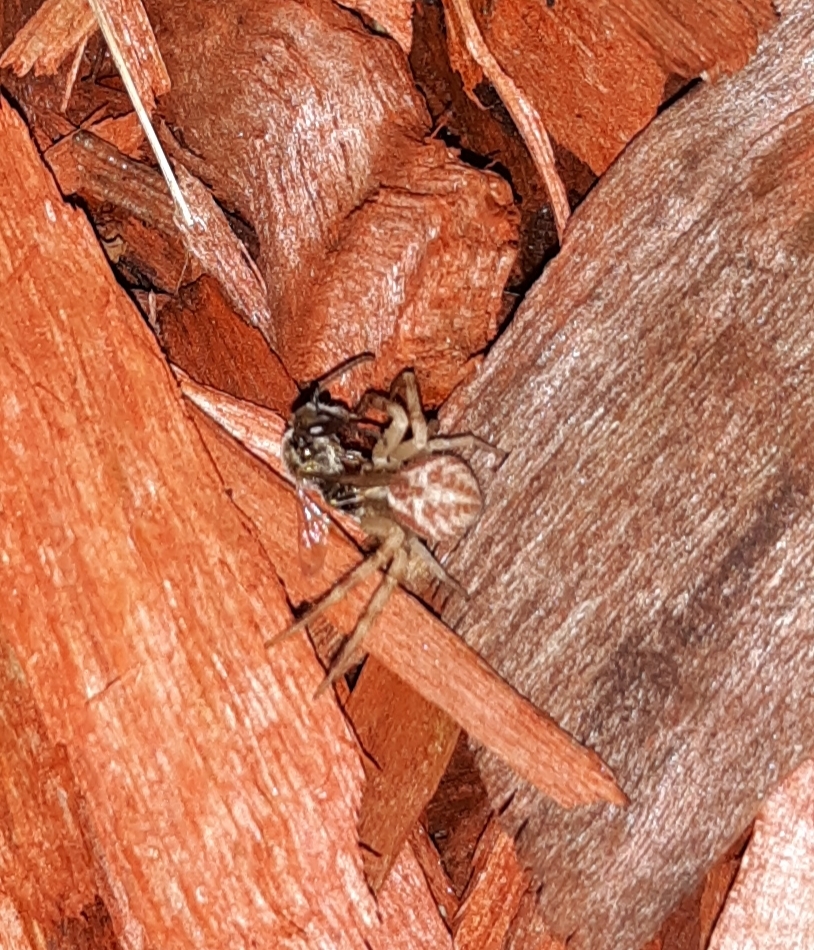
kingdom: Animalia
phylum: Arthropoda
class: Arachnida
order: Araneae
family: Thomisidae
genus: Mecaphesa
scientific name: Mecaphesa asperata
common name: Crab spiders
